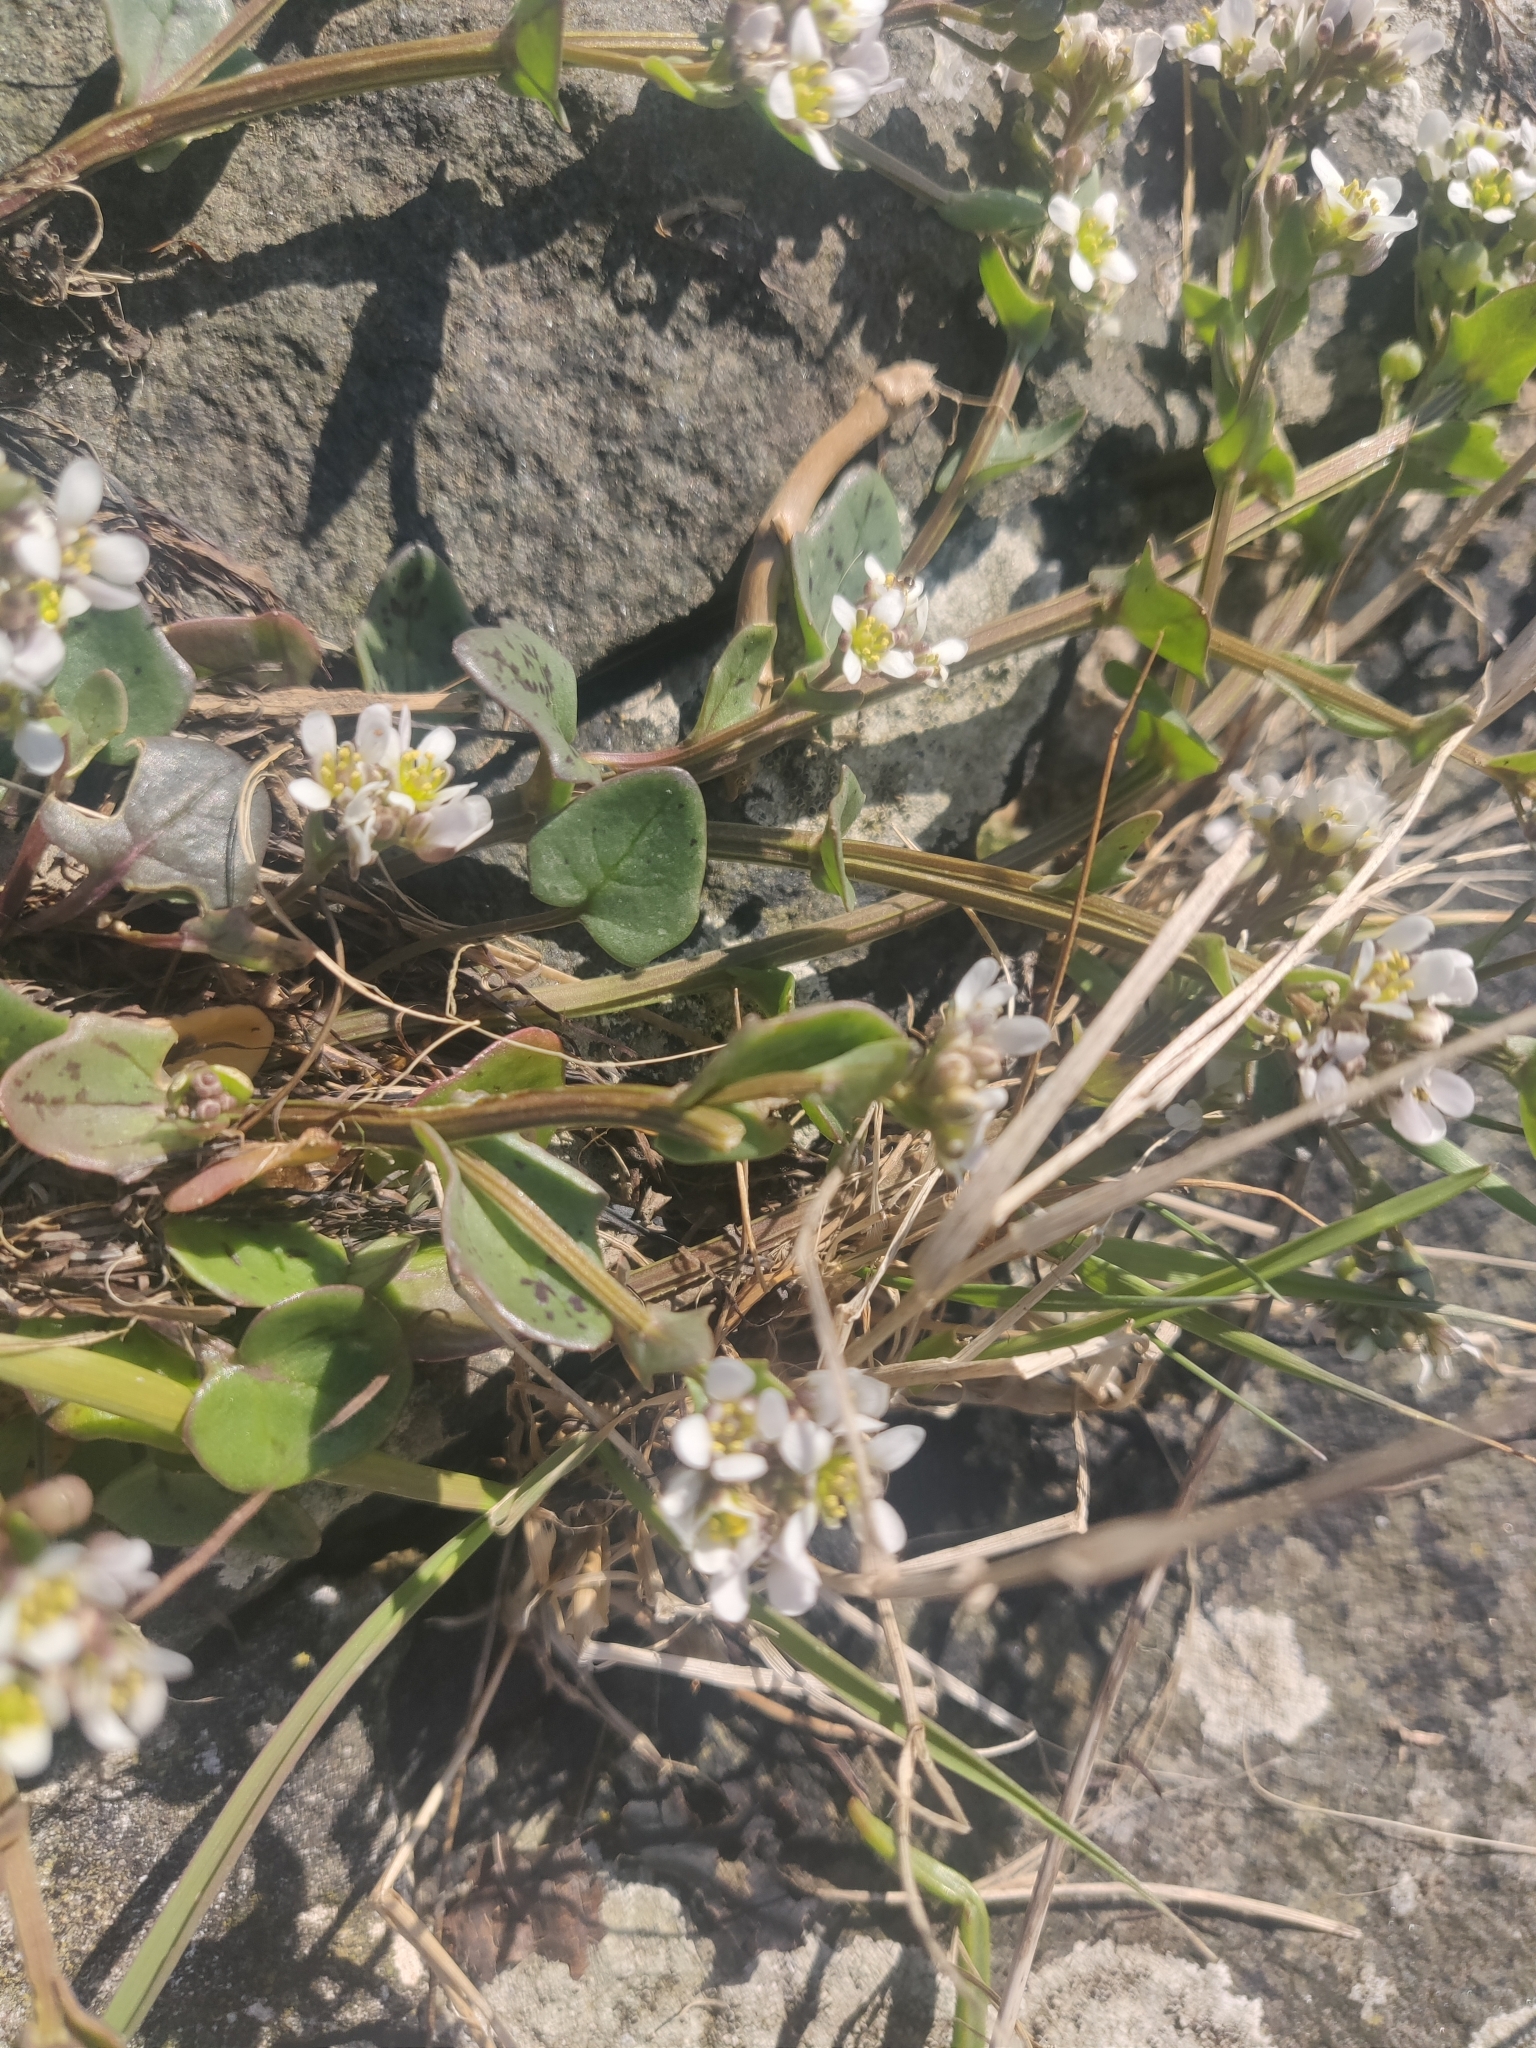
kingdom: Plantae
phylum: Tracheophyta
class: Magnoliopsida
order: Brassicales
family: Brassicaceae
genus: Cochlearia
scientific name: Cochlearia danica
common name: Early scurvygrass
